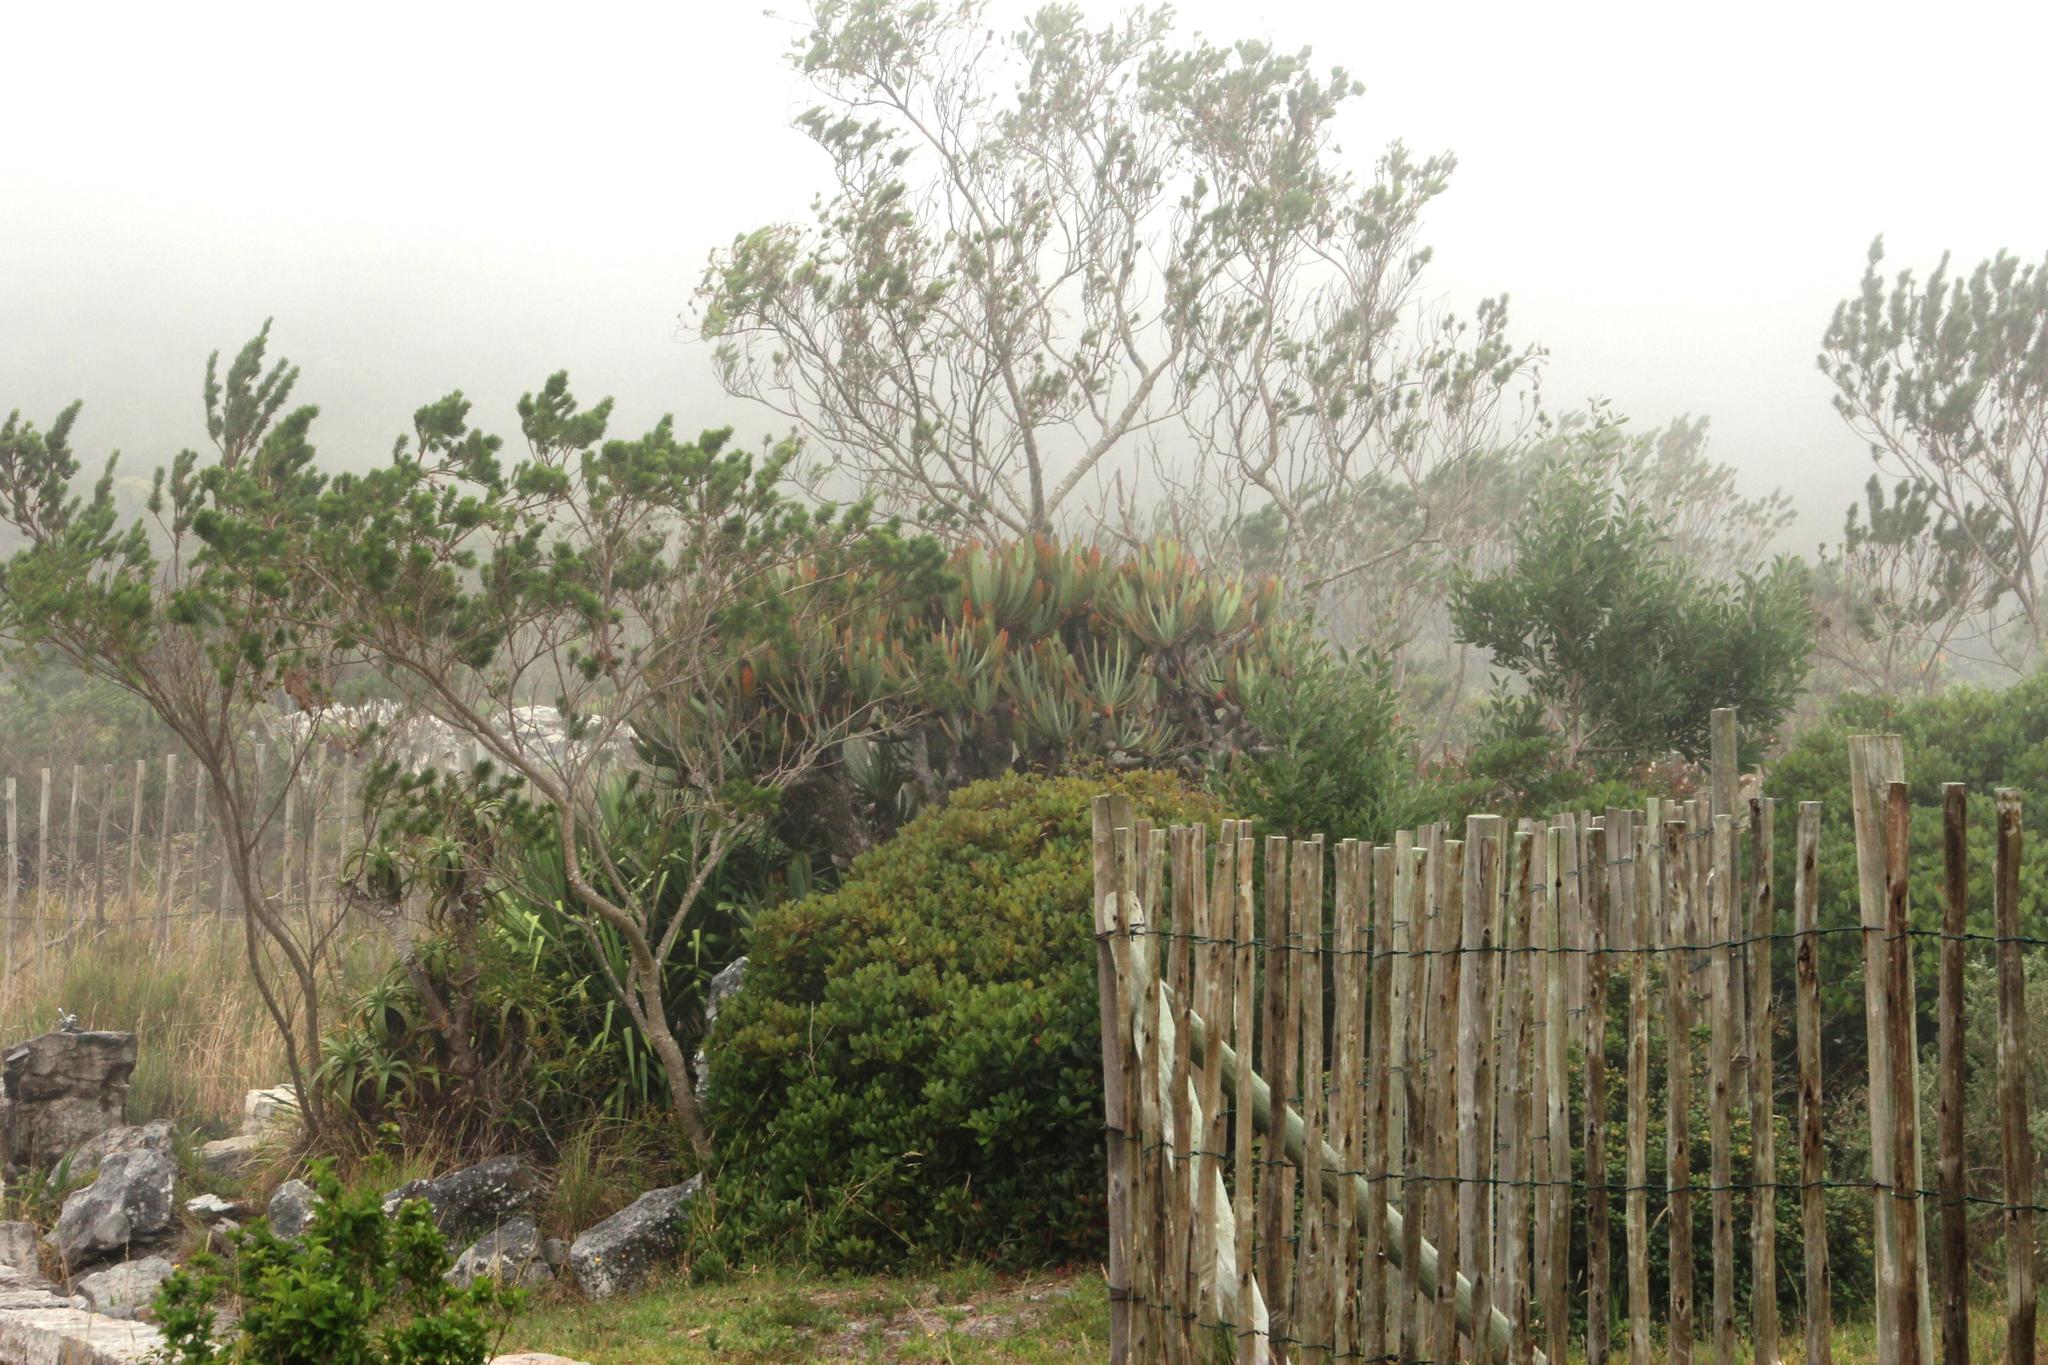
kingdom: Plantae
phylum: Tracheophyta
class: Liliopsida
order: Asparagales
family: Asphodelaceae
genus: Kumara
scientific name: Kumara plicatilis
